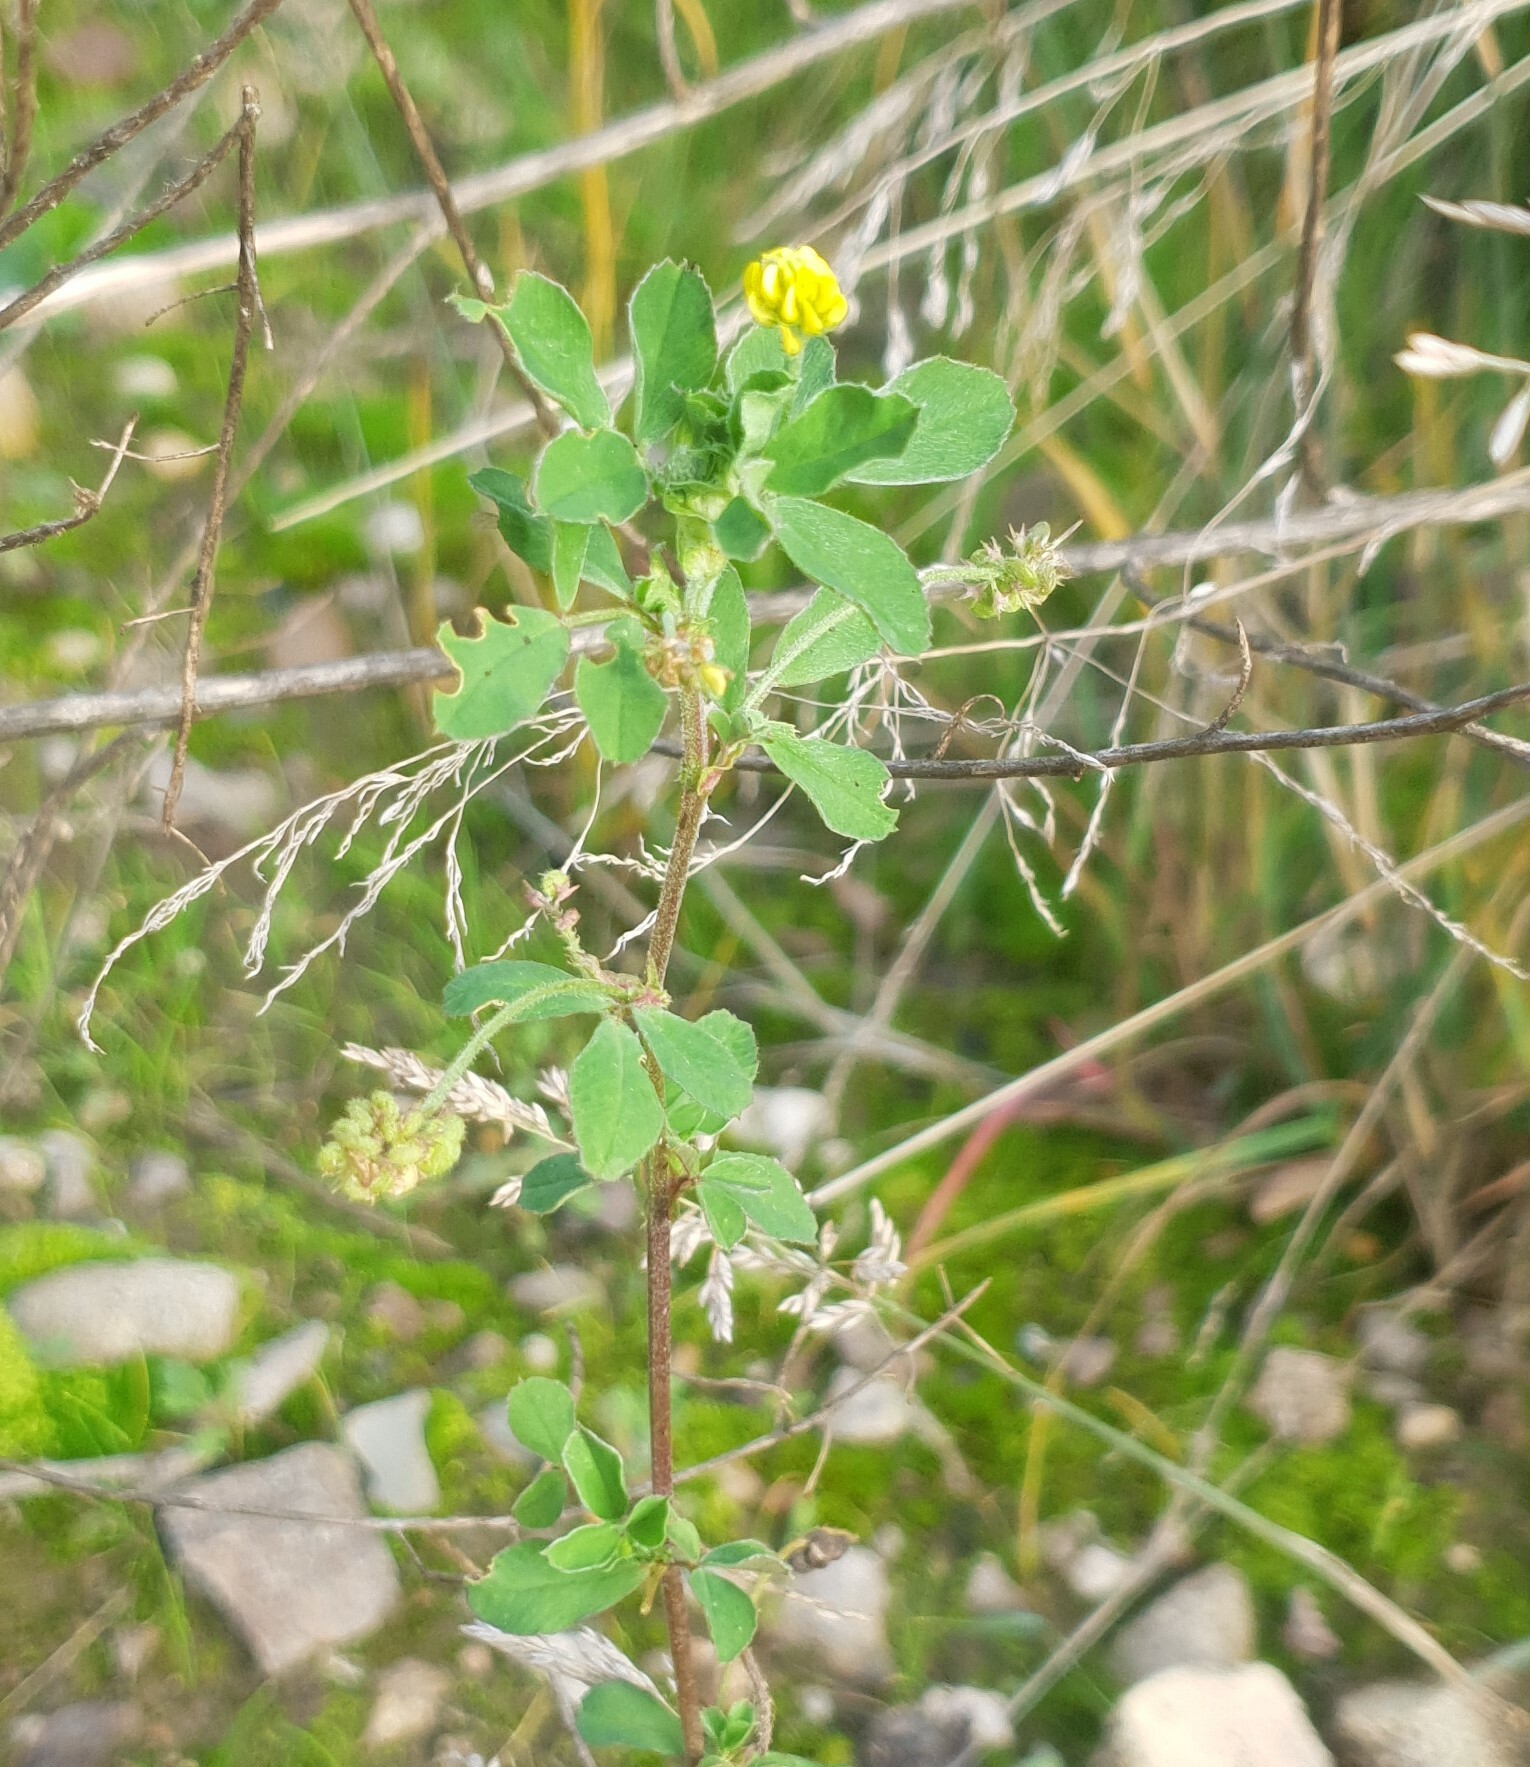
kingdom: Plantae
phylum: Tracheophyta
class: Magnoliopsida
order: Fabales
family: Fabaceae
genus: Medicago
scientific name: Medicago lupulina
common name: Black medick
